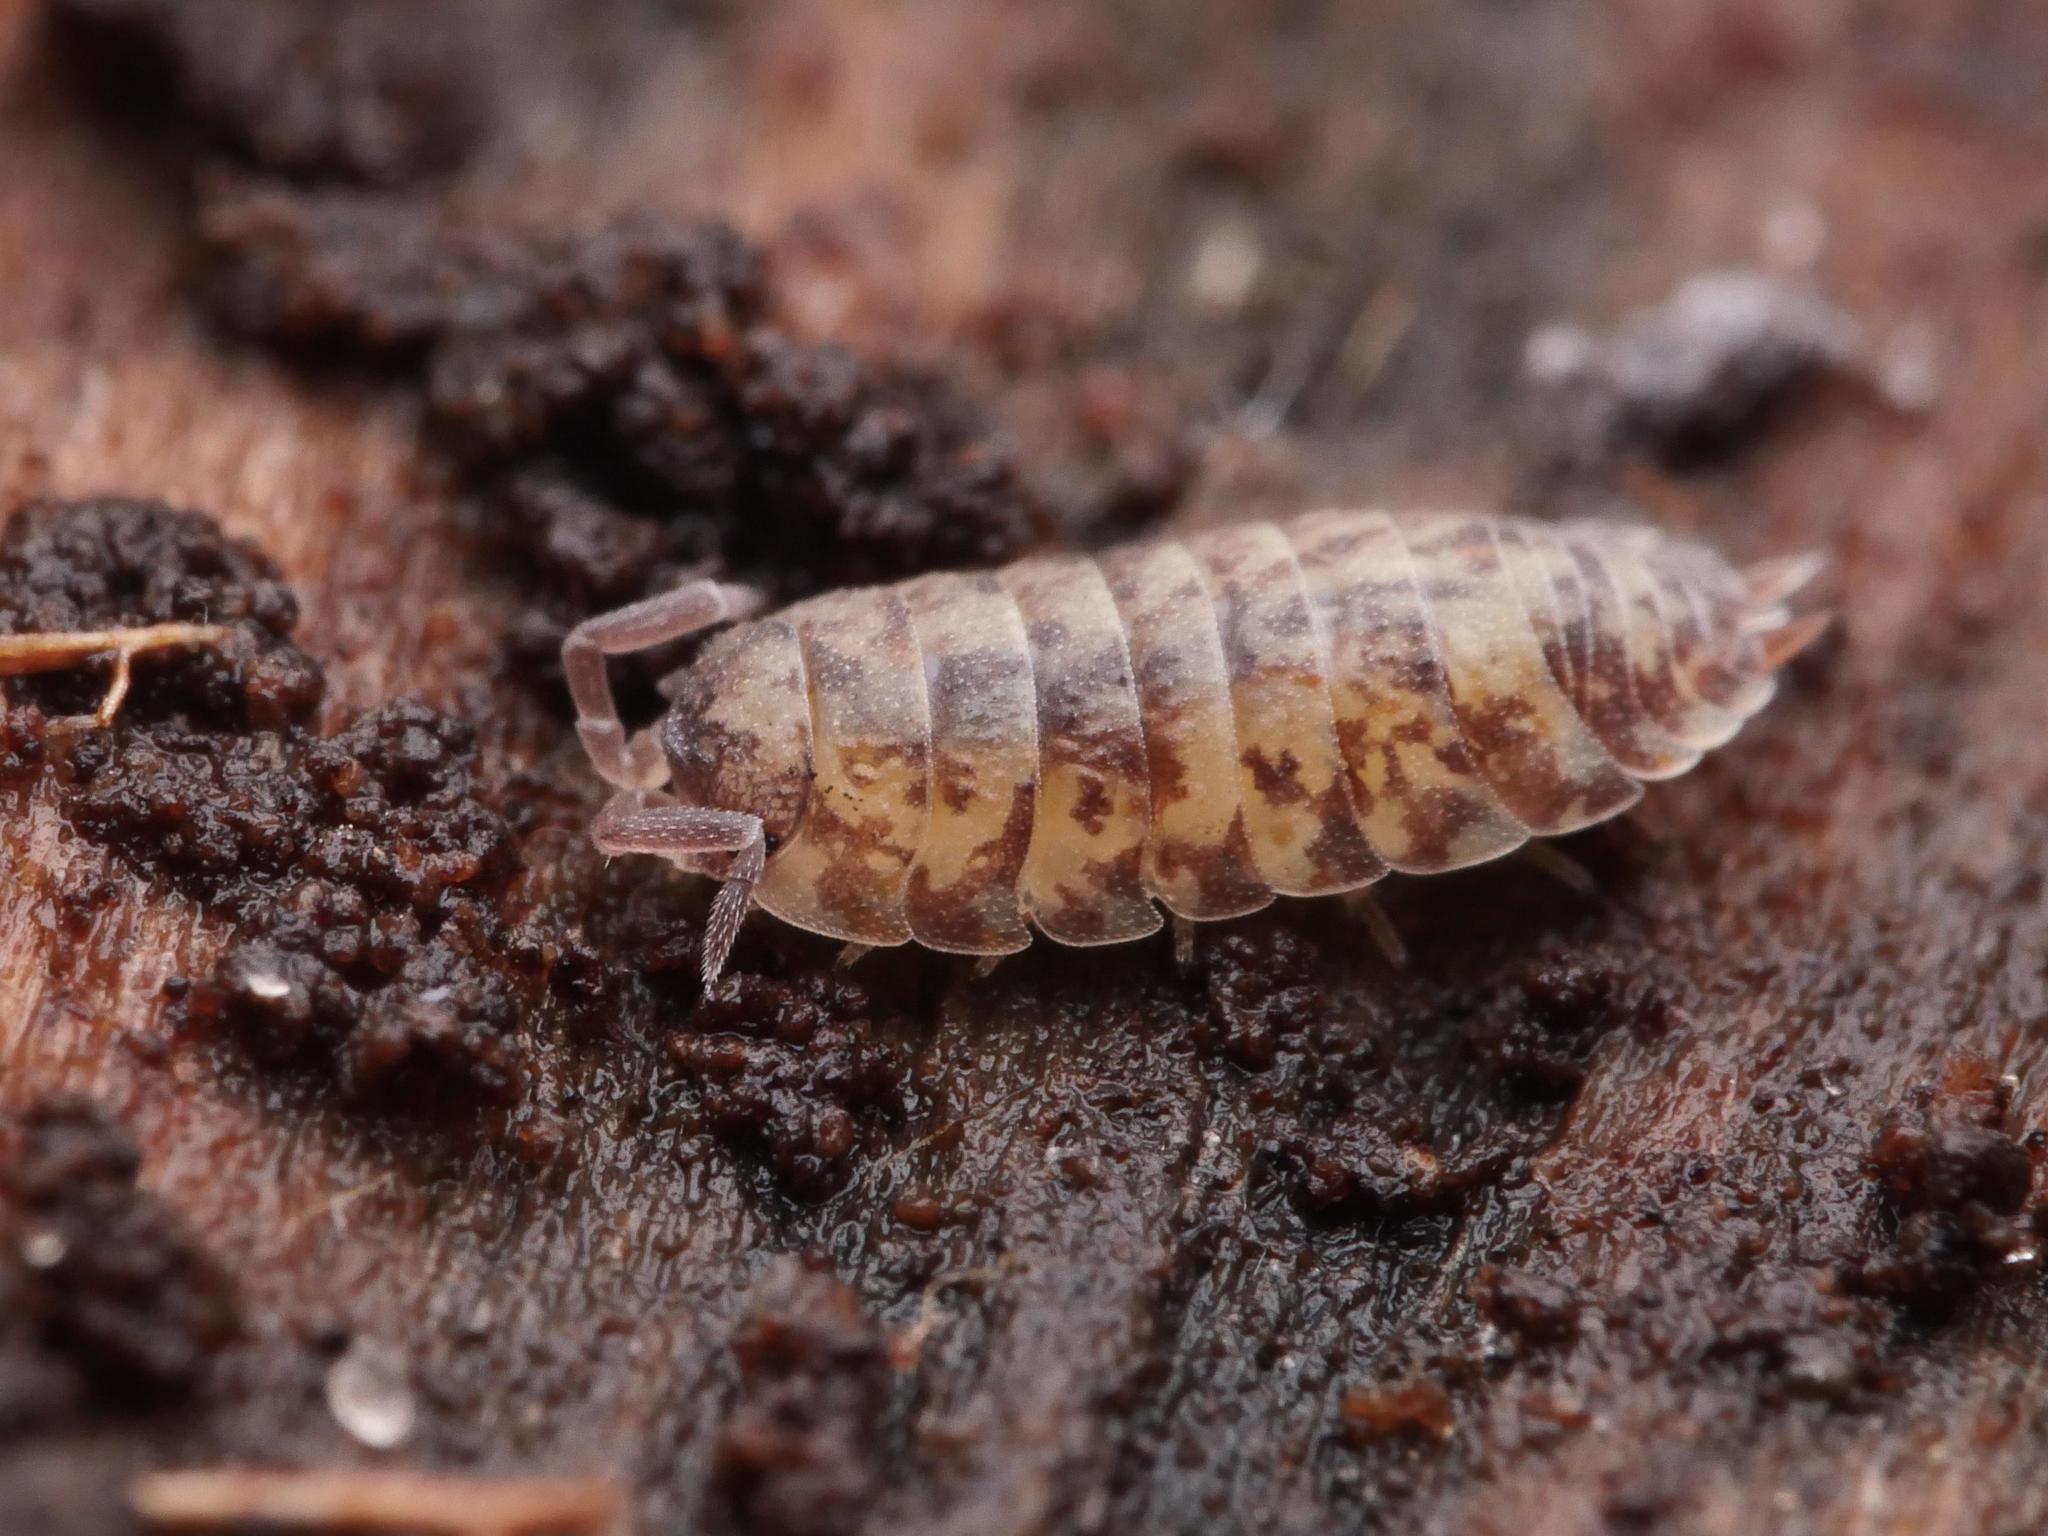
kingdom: Animalia
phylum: Arthropoda
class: Malacostraca
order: Isopoda
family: Porcellionidae
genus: Porcellio
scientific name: Porcellio scaber
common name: Common rough woodlouse
